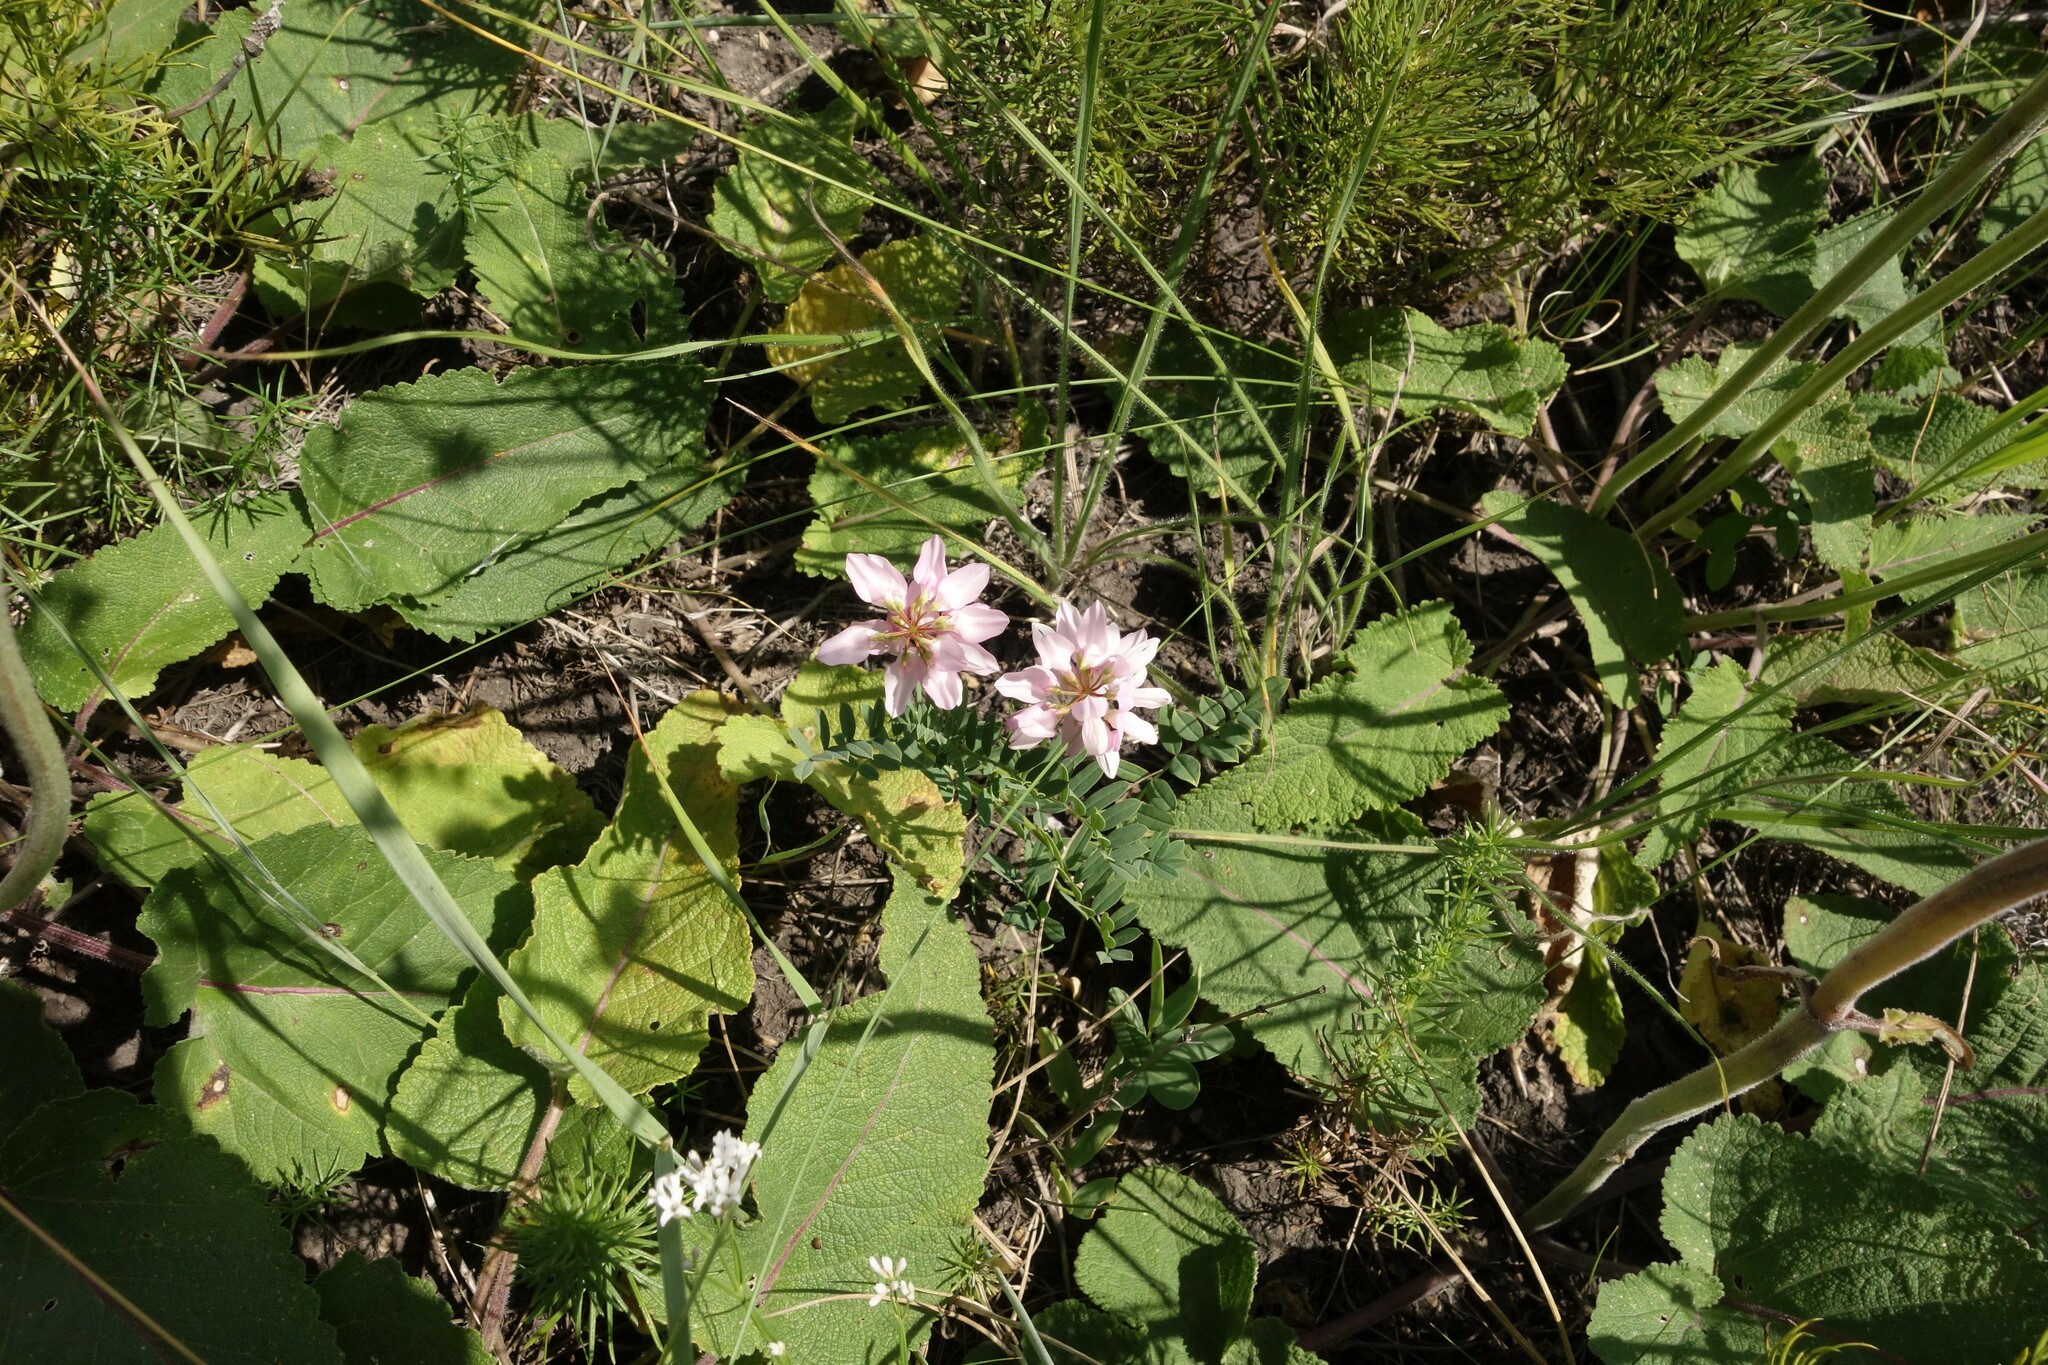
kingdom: Plantae
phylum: Tracheophyta
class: Magnoliopsida
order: Fabales
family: Fabaceae
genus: Coronilla
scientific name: Coronilla varia
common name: Crownvetch
